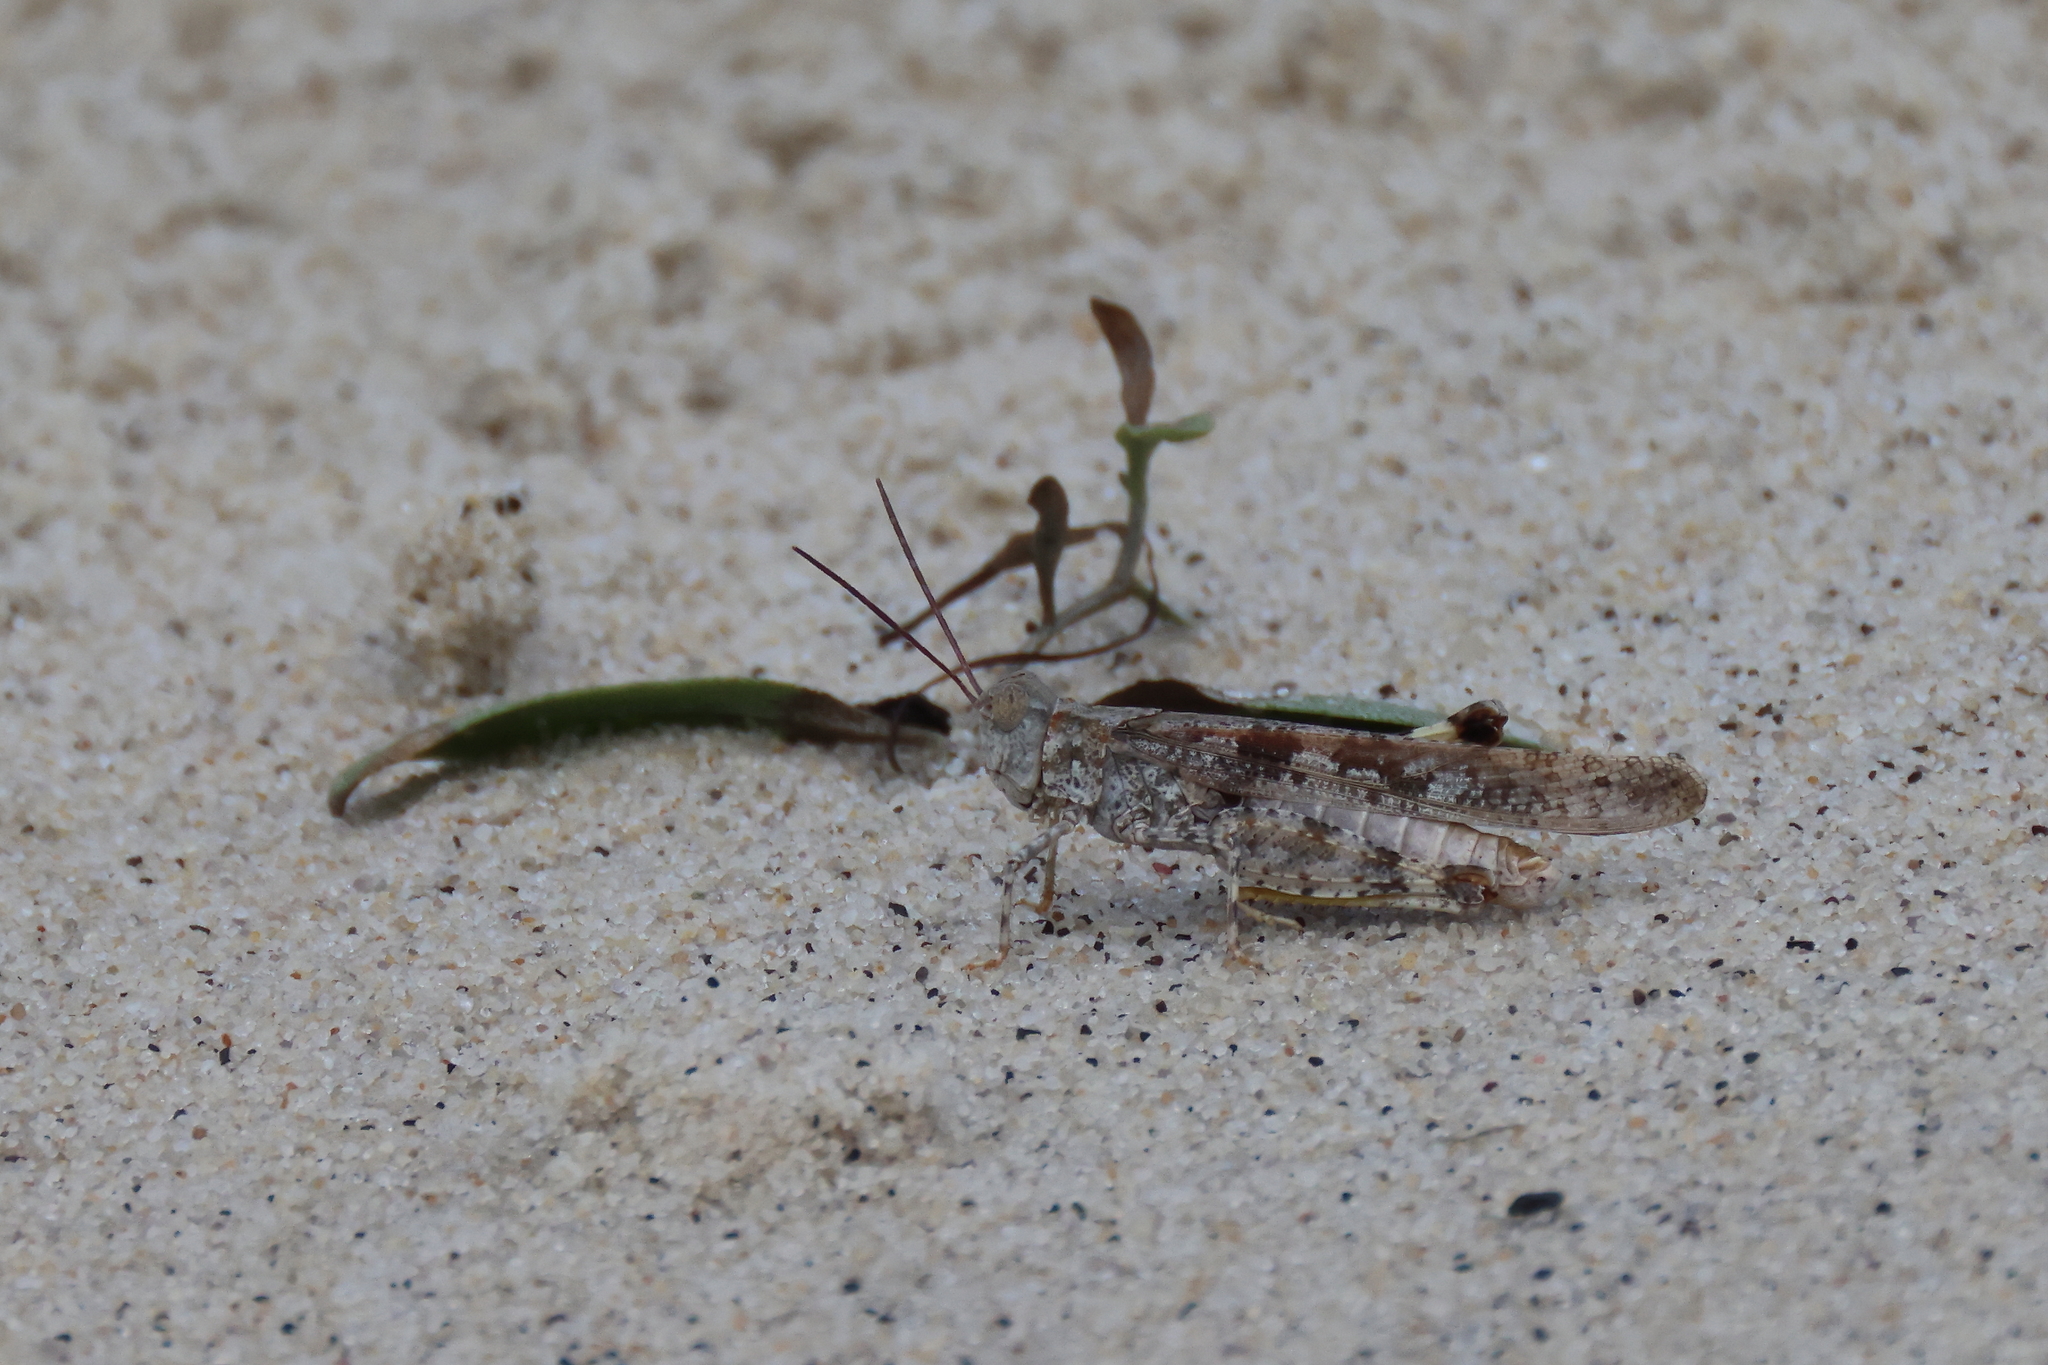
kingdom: Animalia
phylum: Arthropoda
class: Insecta
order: Orthoptera
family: Acrididae
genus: Trimerotropis
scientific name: Trimerotropis maritima
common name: Seaside locust
